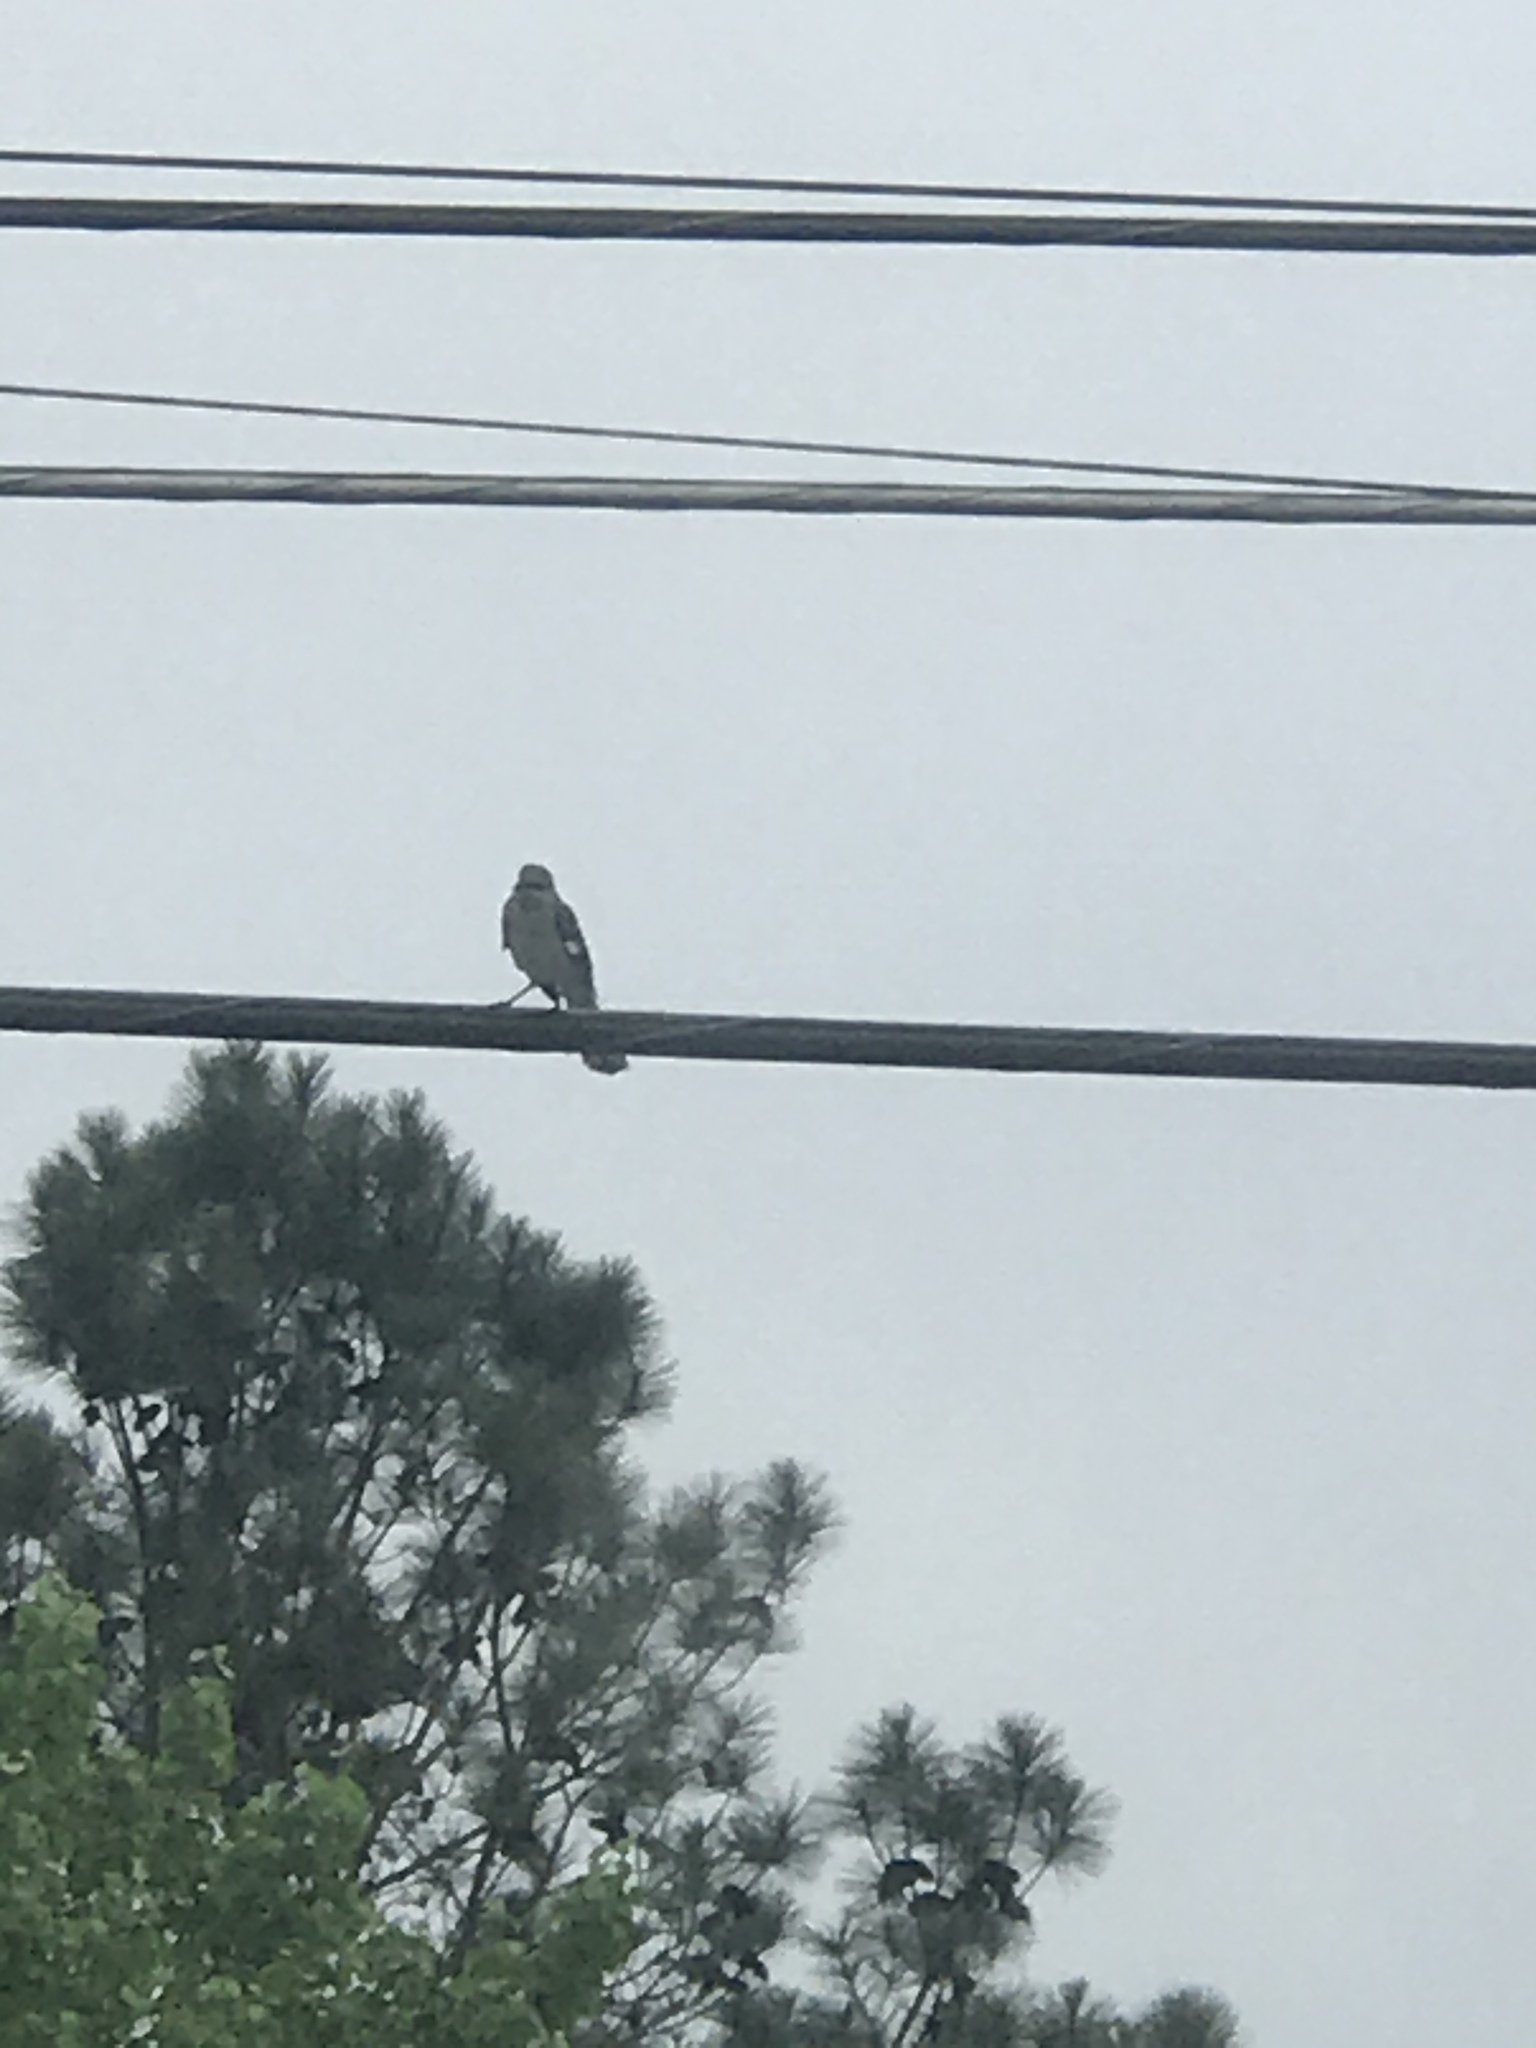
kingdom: Animalia
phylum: Chordata
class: Aves
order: Passeriformes
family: Mimidae
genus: Mimus
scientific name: Mimus polyglottos
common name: Northern mockingbird
